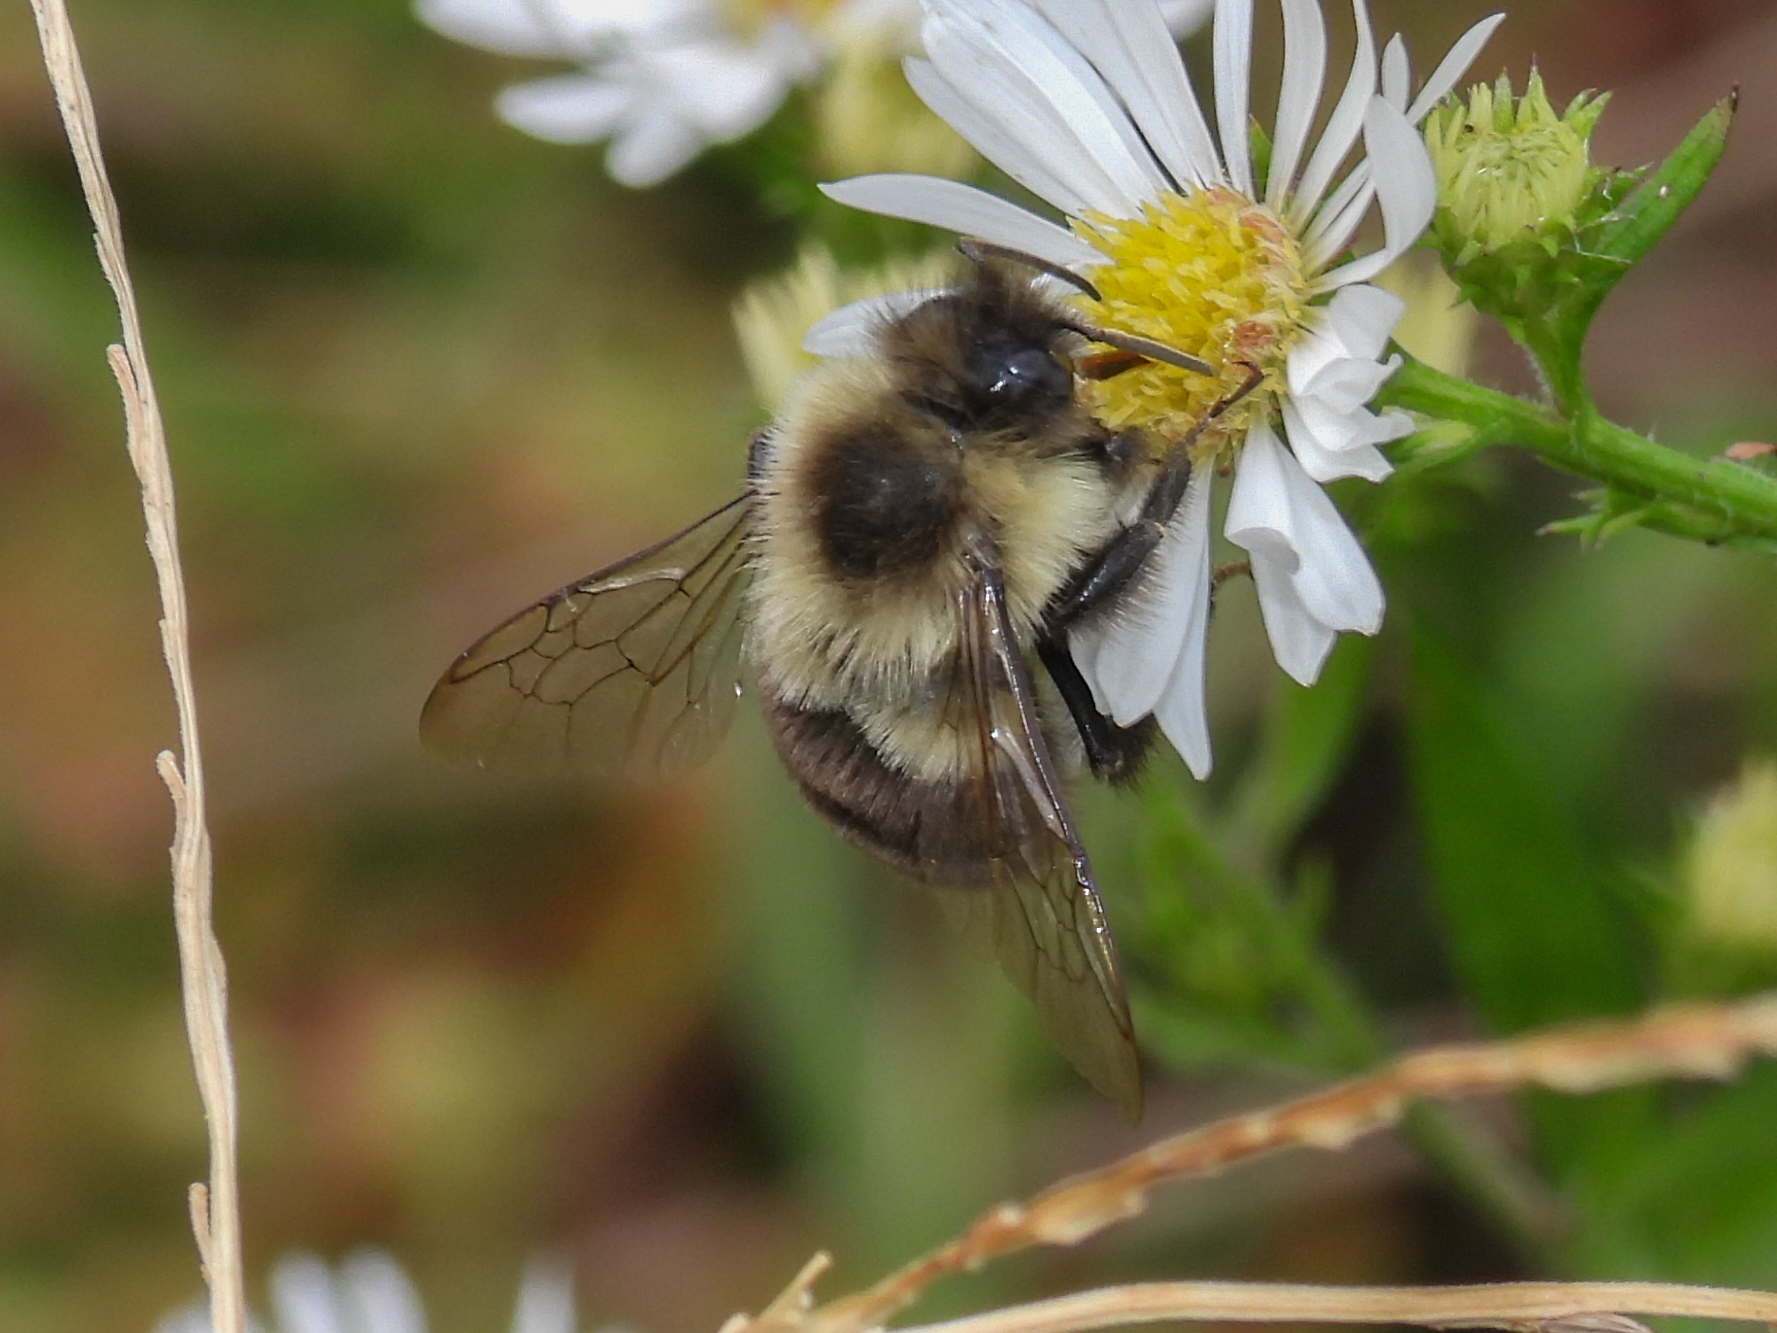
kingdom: Animalia
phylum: Arthropoda
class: Insecta
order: Hymenoptera
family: Apidae
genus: Bombus
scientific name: Bombus impatiens
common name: Common eastern bumble bee
